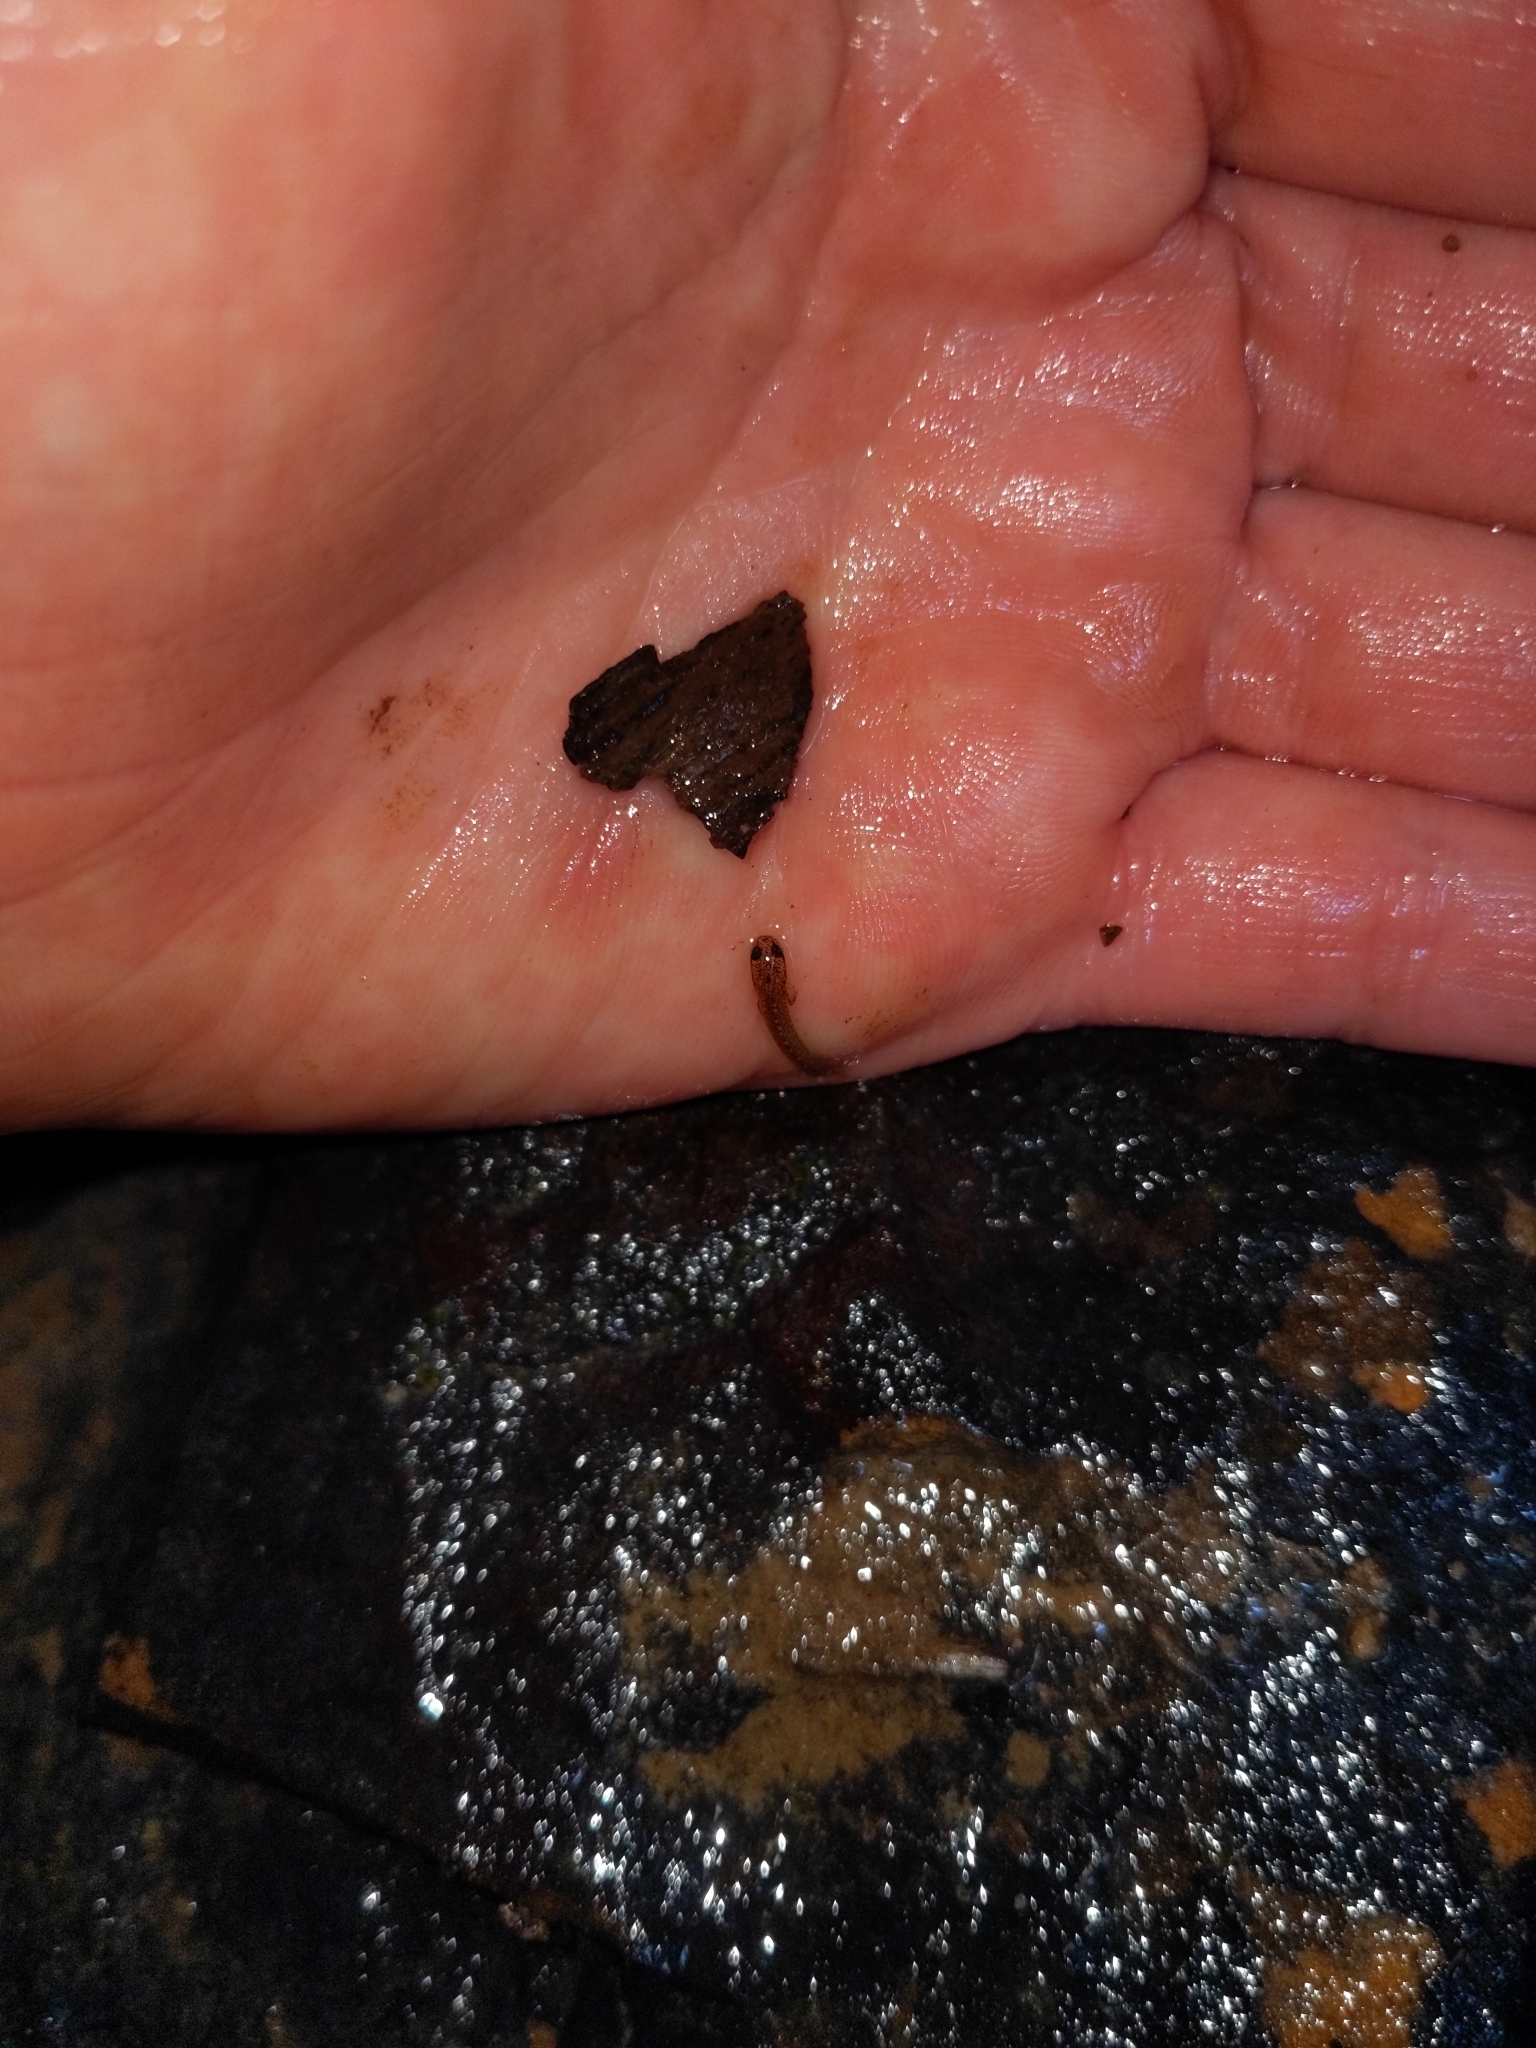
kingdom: Animalia
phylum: Chordata
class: Amphibia
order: Caudata
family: Plethodontidae
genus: Eurycea
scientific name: Eurycea bislineata
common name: Northern two-lined salamander
